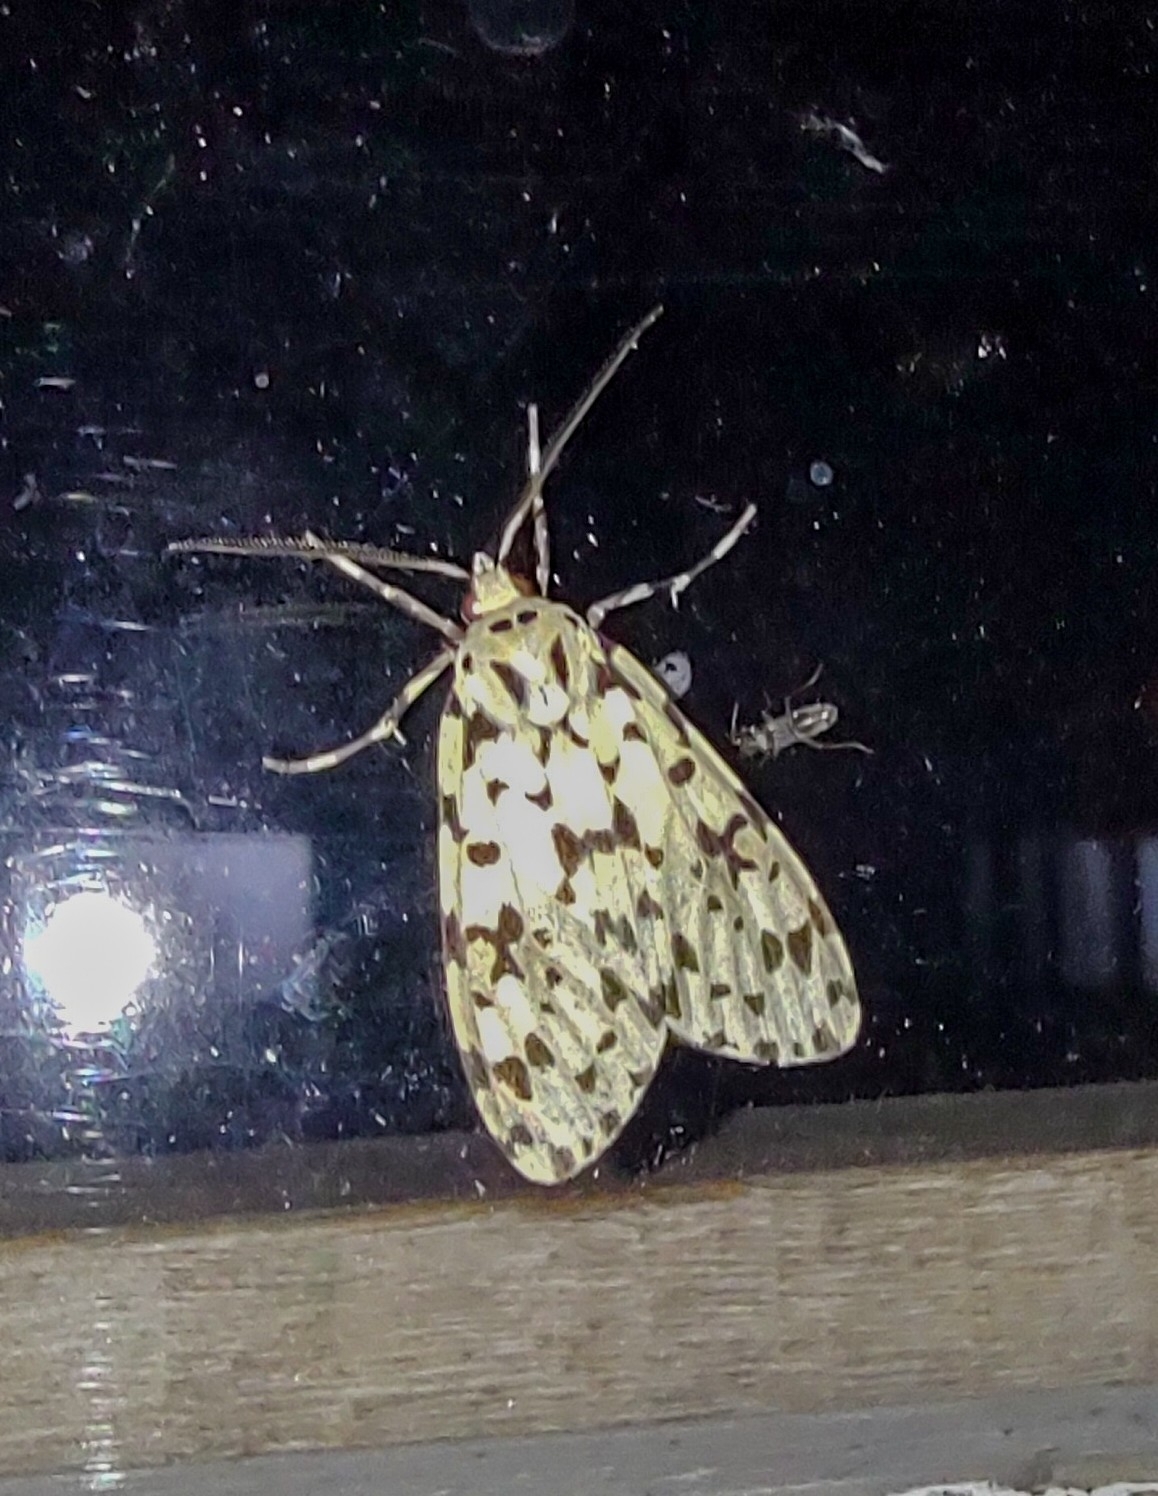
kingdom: Animalia
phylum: Arthropoda
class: Insecta
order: Lepidoptera
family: Erebidae
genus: Eucereon
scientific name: Eucereon punctata
